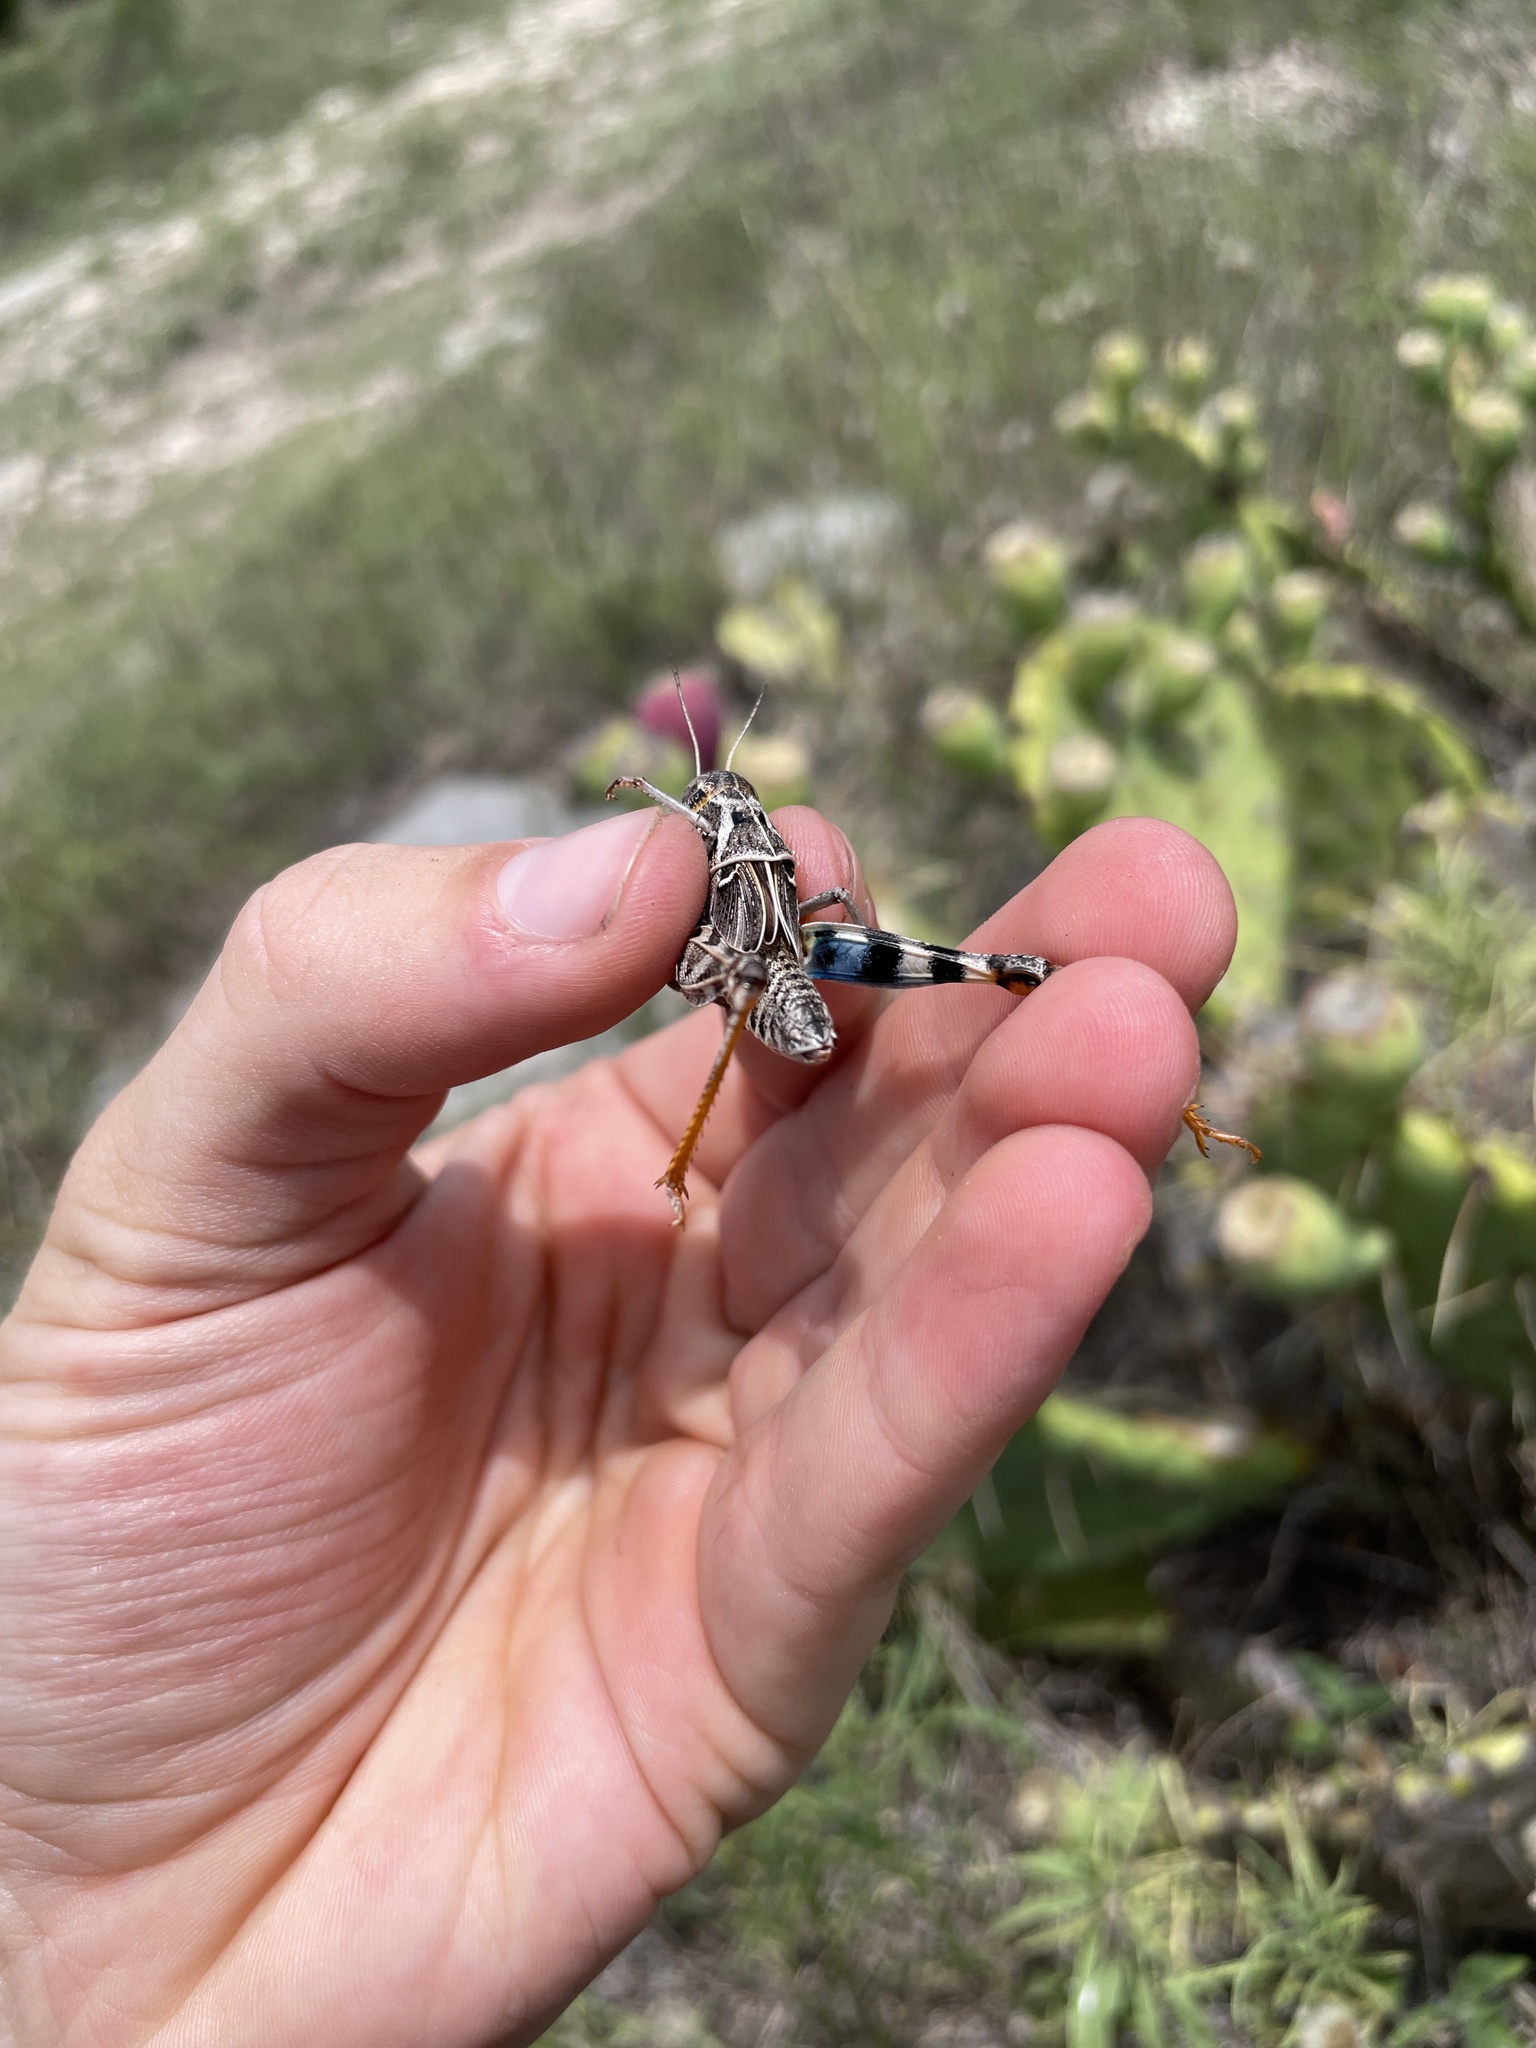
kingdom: Animalia
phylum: Arthropoda
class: Insecta
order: Orthoptera
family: Acrididae
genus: Hippiscus
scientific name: Hippiscus ocelote
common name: Wrinkled grasshopper
